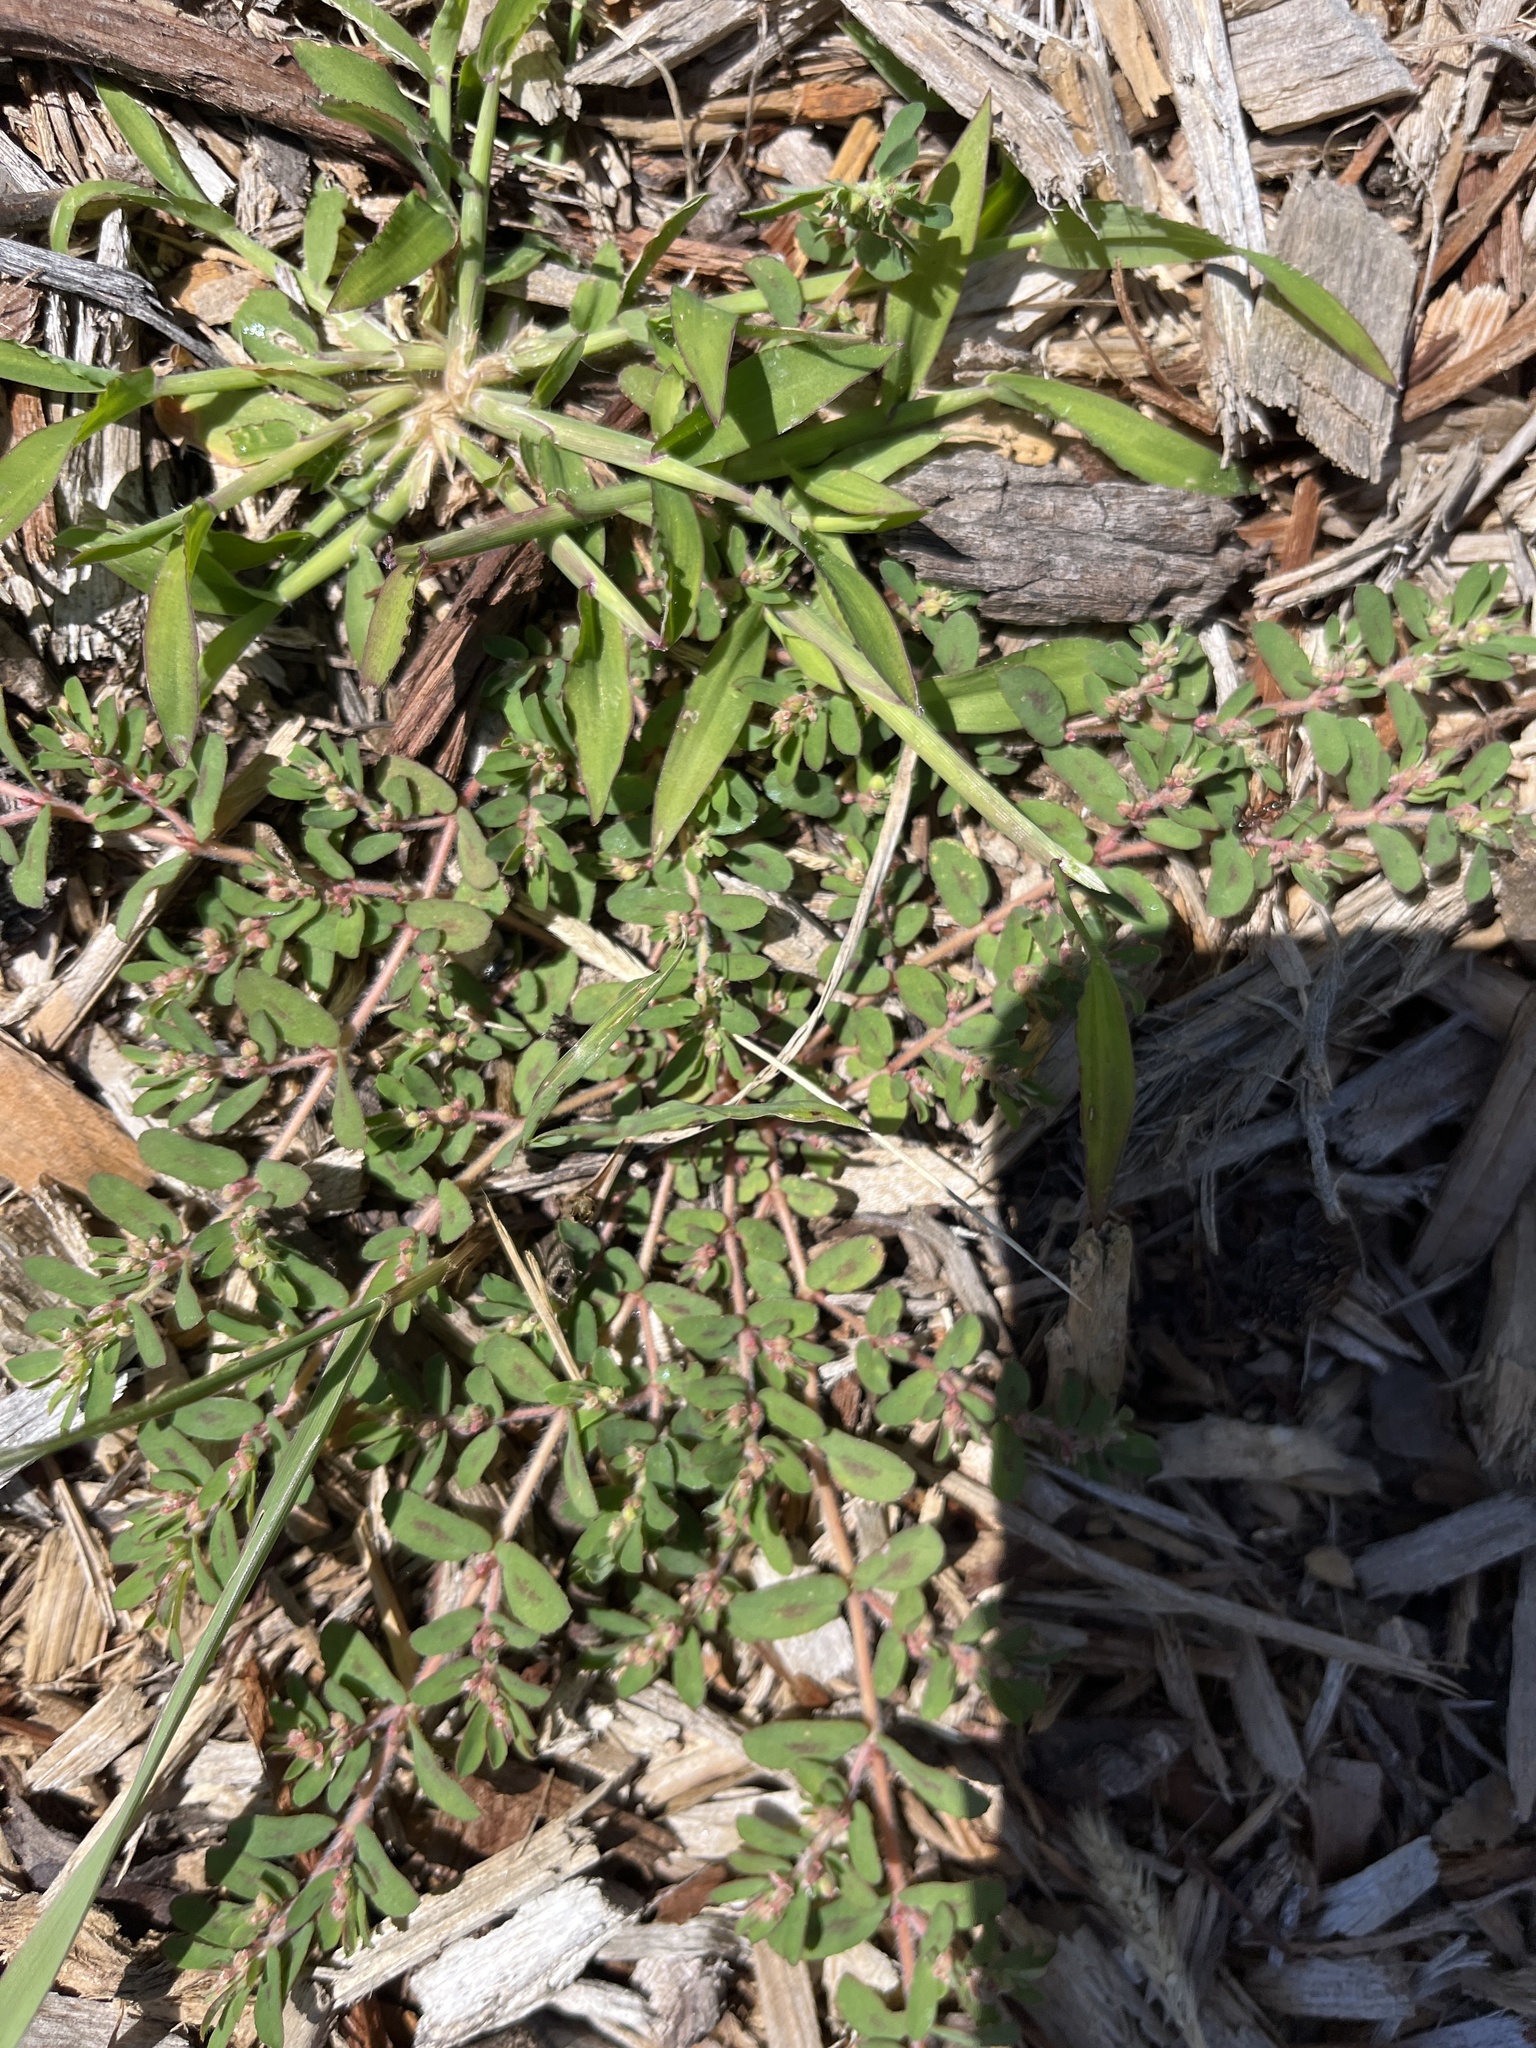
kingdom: Plantae
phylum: Tracheophyta
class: Magnoliopsida
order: Malpighiales
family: Euphorbiaceae
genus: Euphorbia
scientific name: Euphorbia maculata
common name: Spotted spurge
